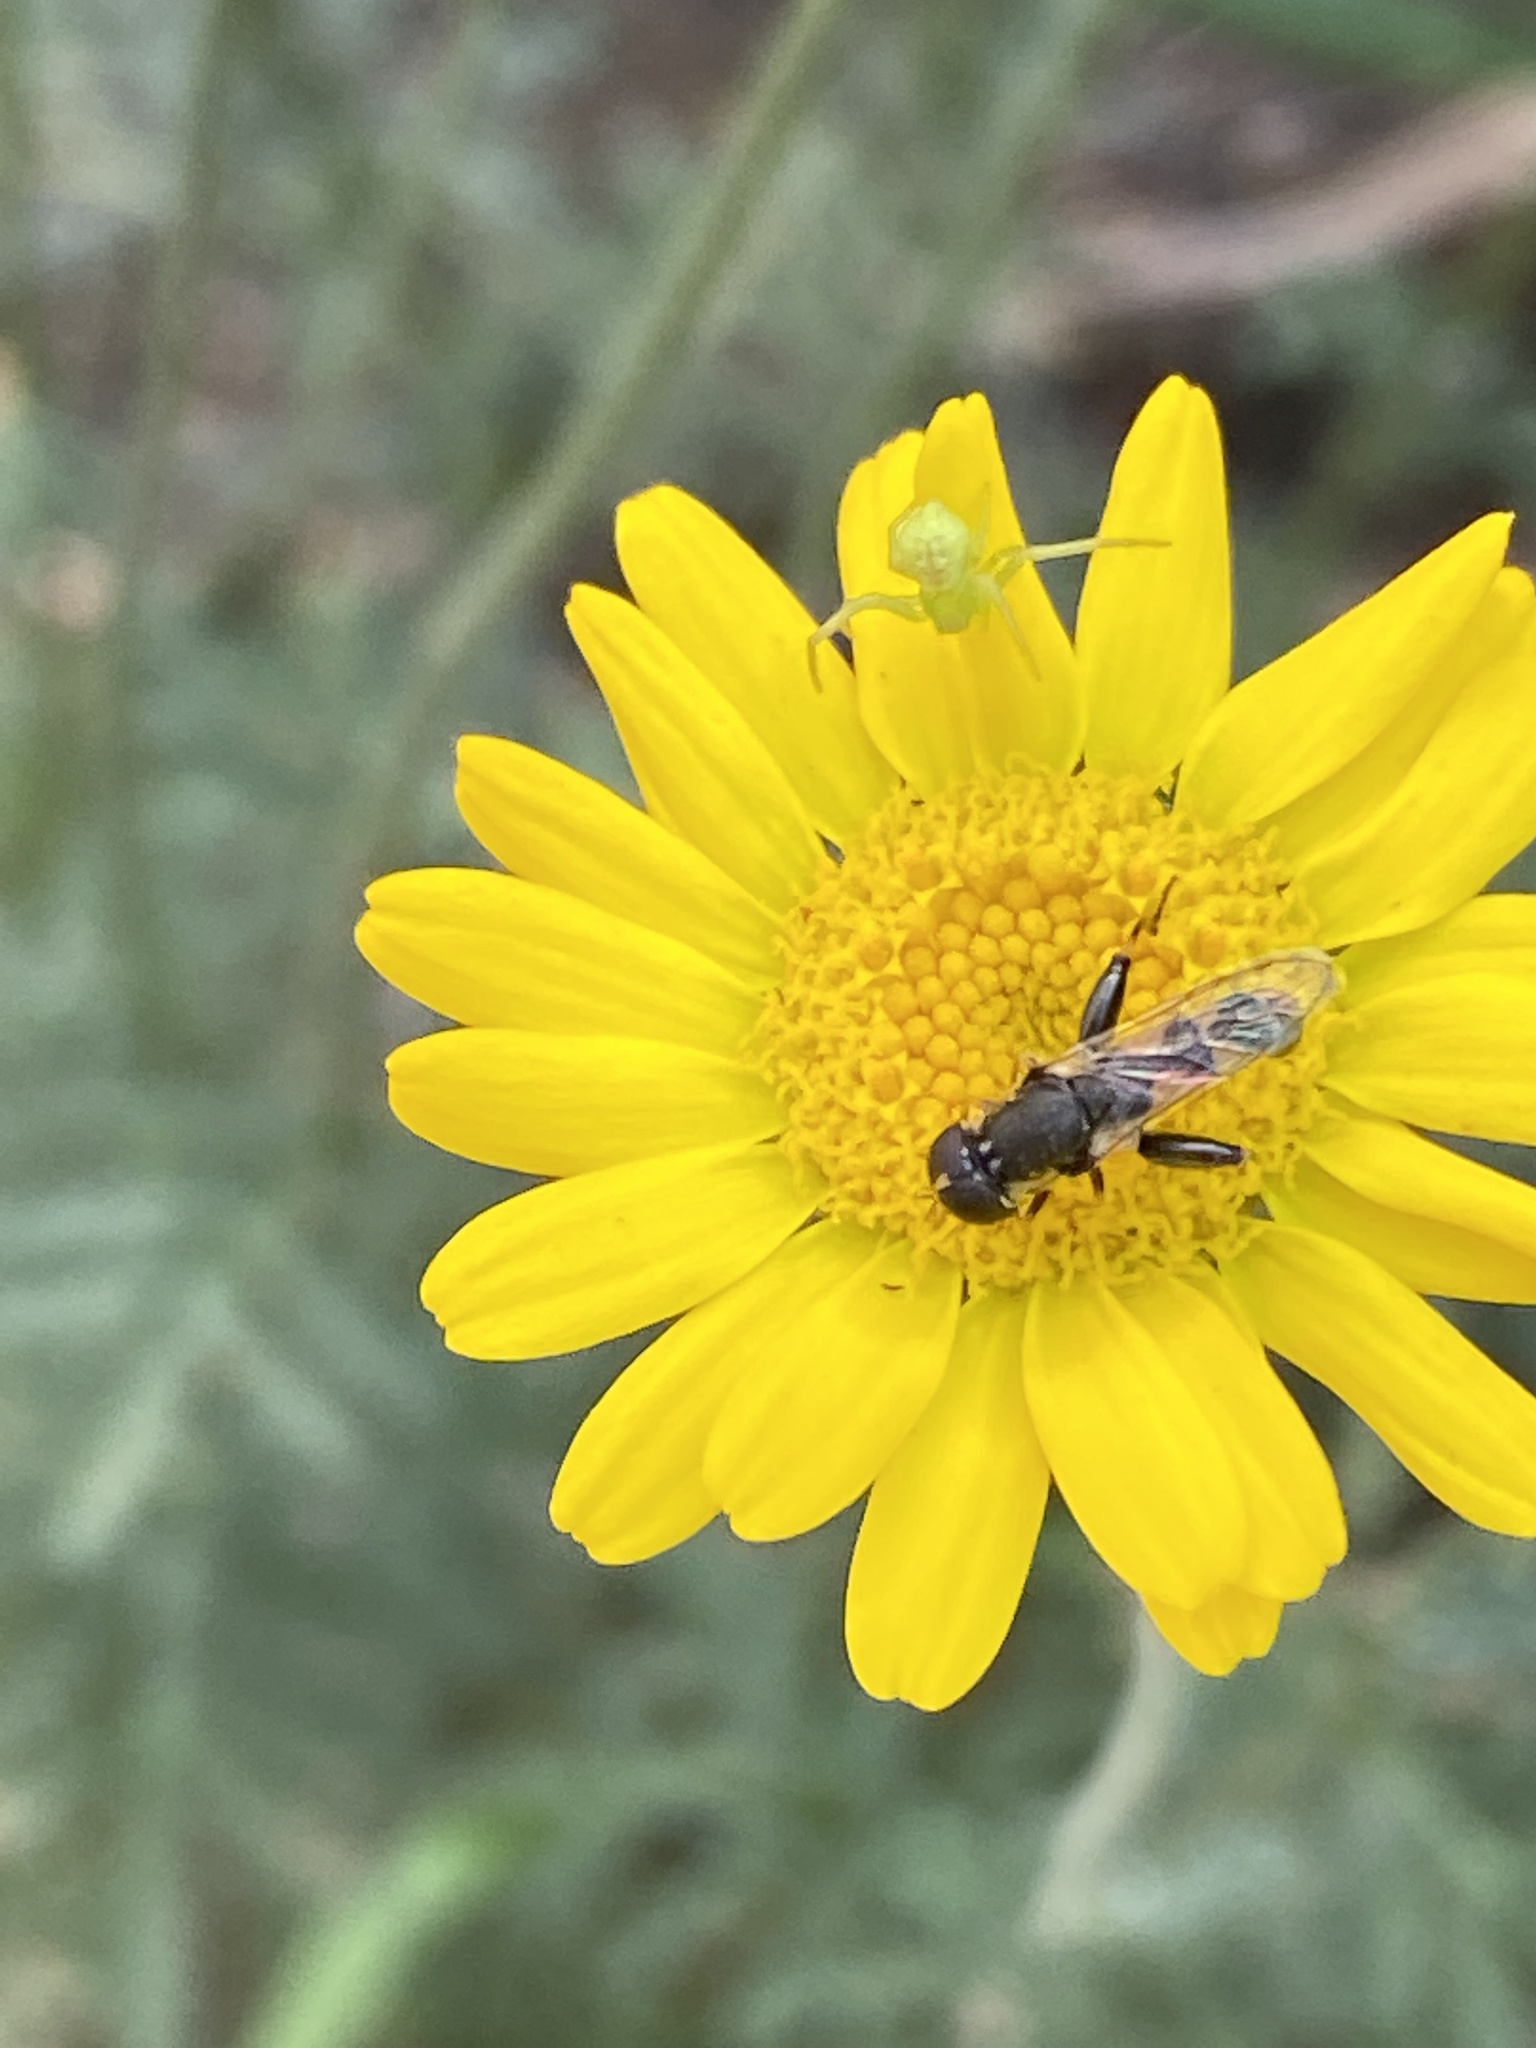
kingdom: Plantae
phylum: Tracheophyta
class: Magnoliopsida
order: Asterales
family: Asteraceae
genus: Cota
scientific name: Cota tinctoria
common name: Golden chamomile
